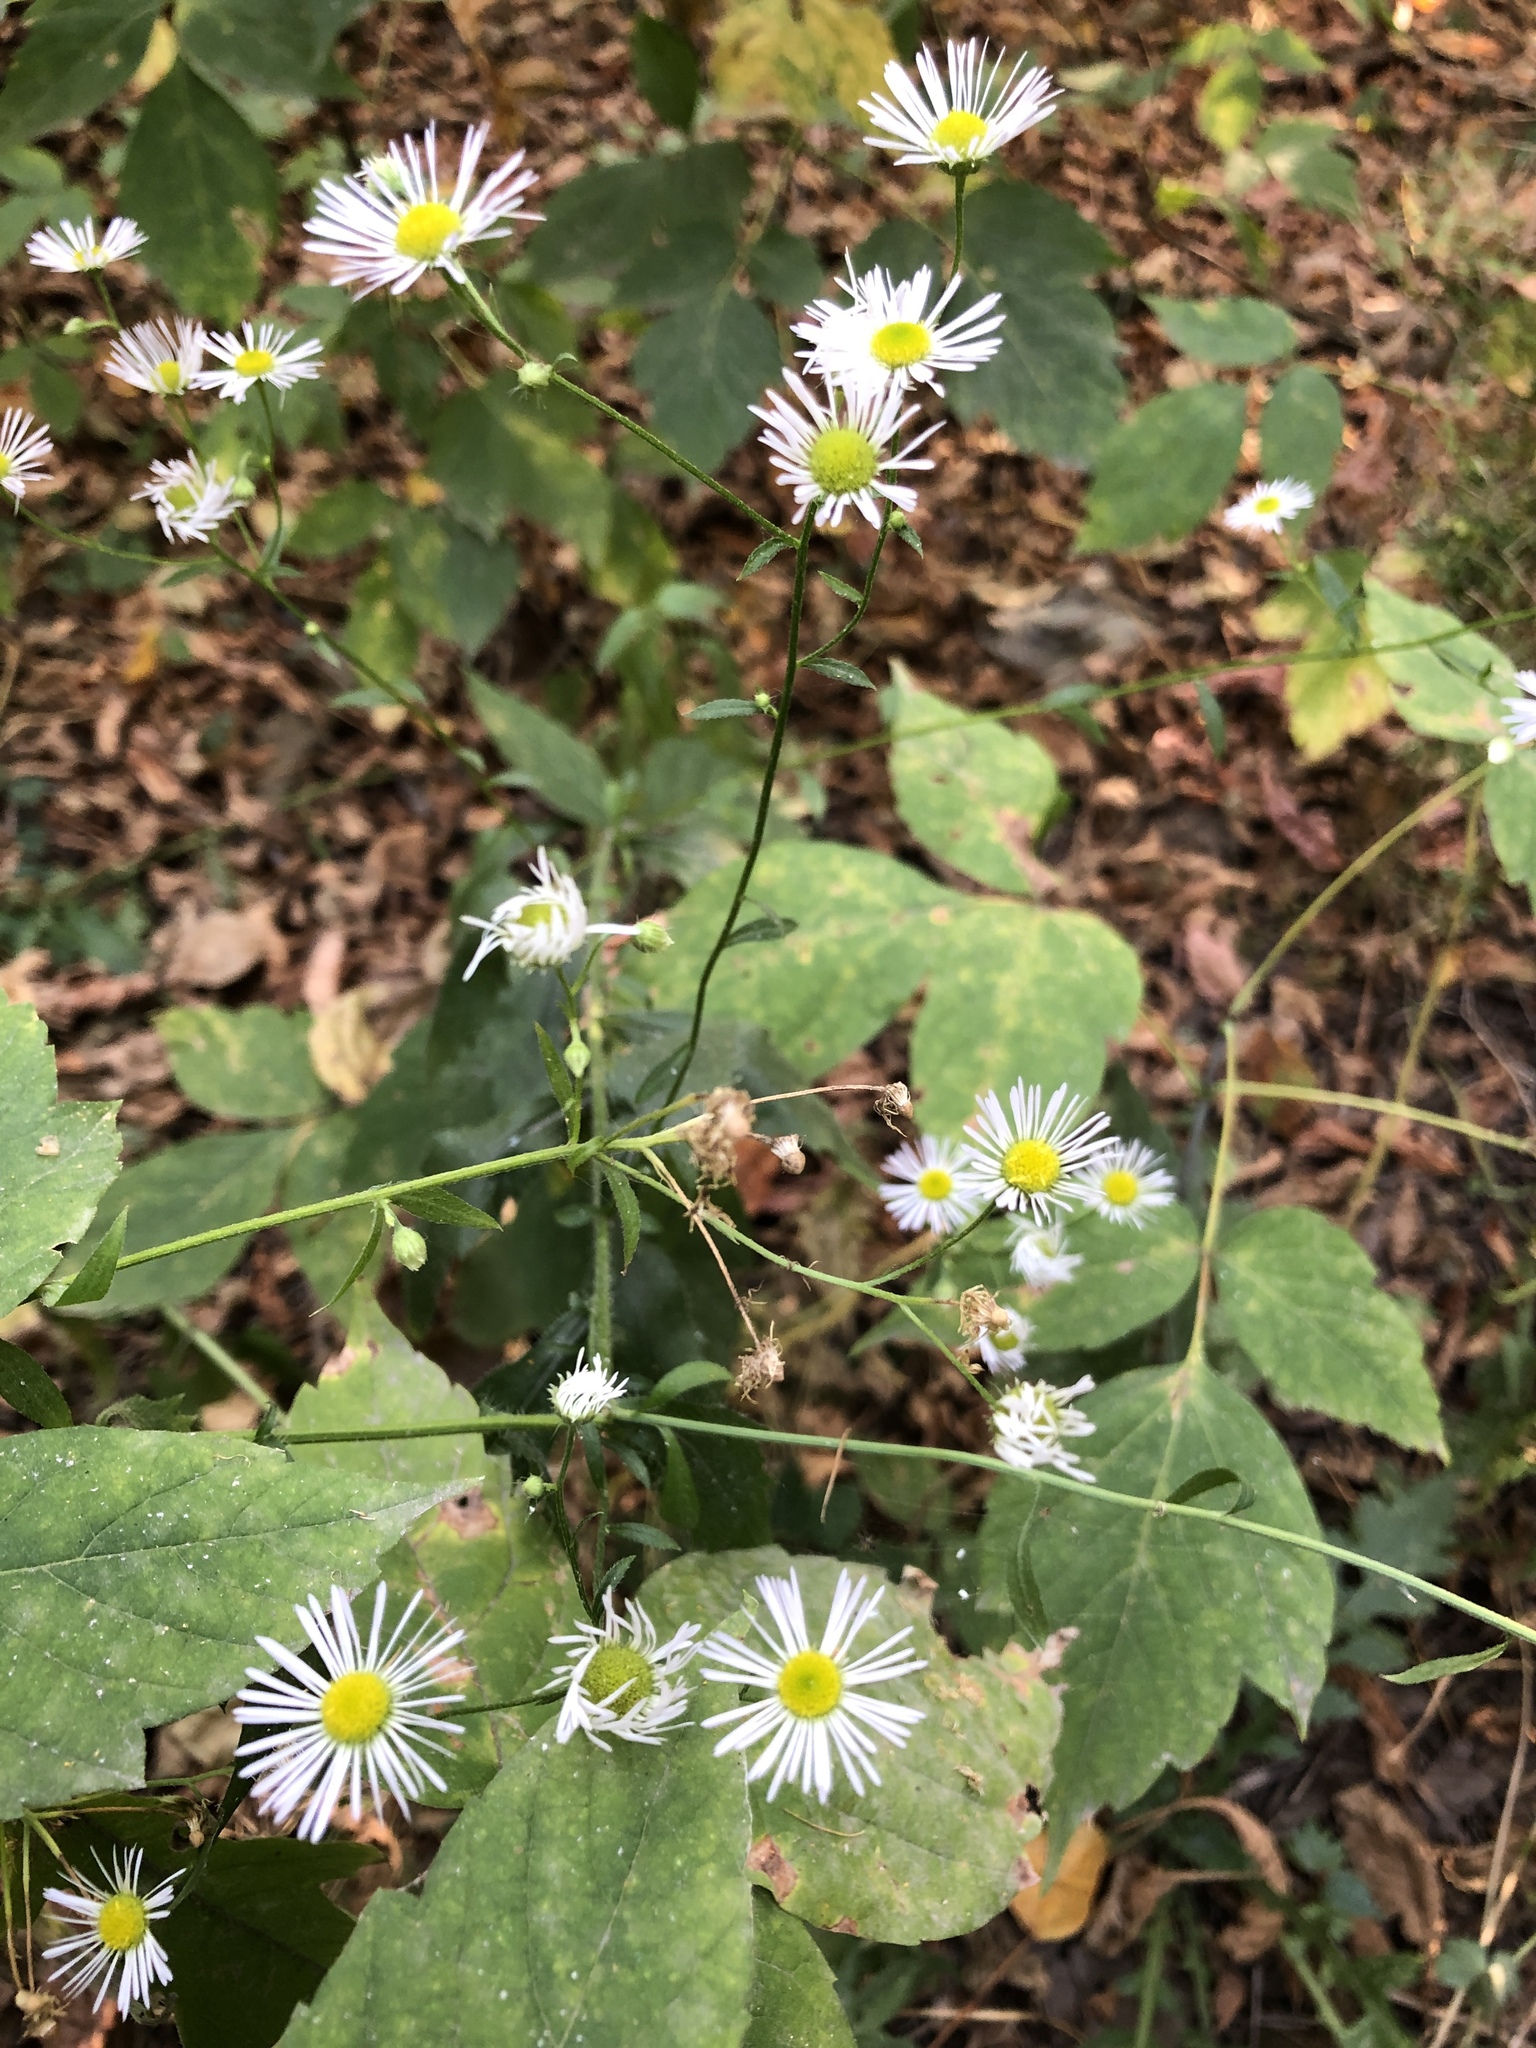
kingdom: Plantae
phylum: Tracheophyta
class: Magnoliopsida
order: Asterales
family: Asteraceae
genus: Erigeron
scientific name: Erigeron annuus
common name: Tall fleabane
